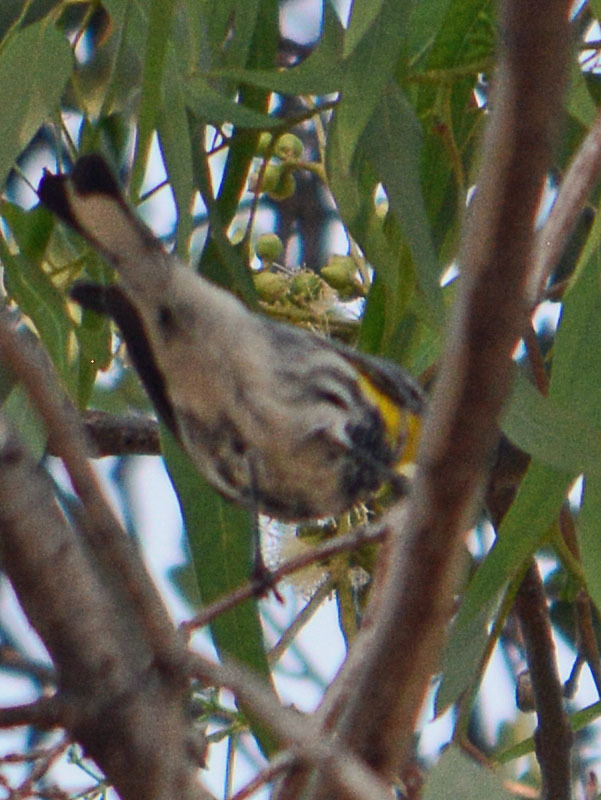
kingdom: Animalia
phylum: Chordata
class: Aves
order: Passeriformes
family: Parulidae
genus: Setophaga
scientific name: Setophaga auduboni
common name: Audubon's warbler
